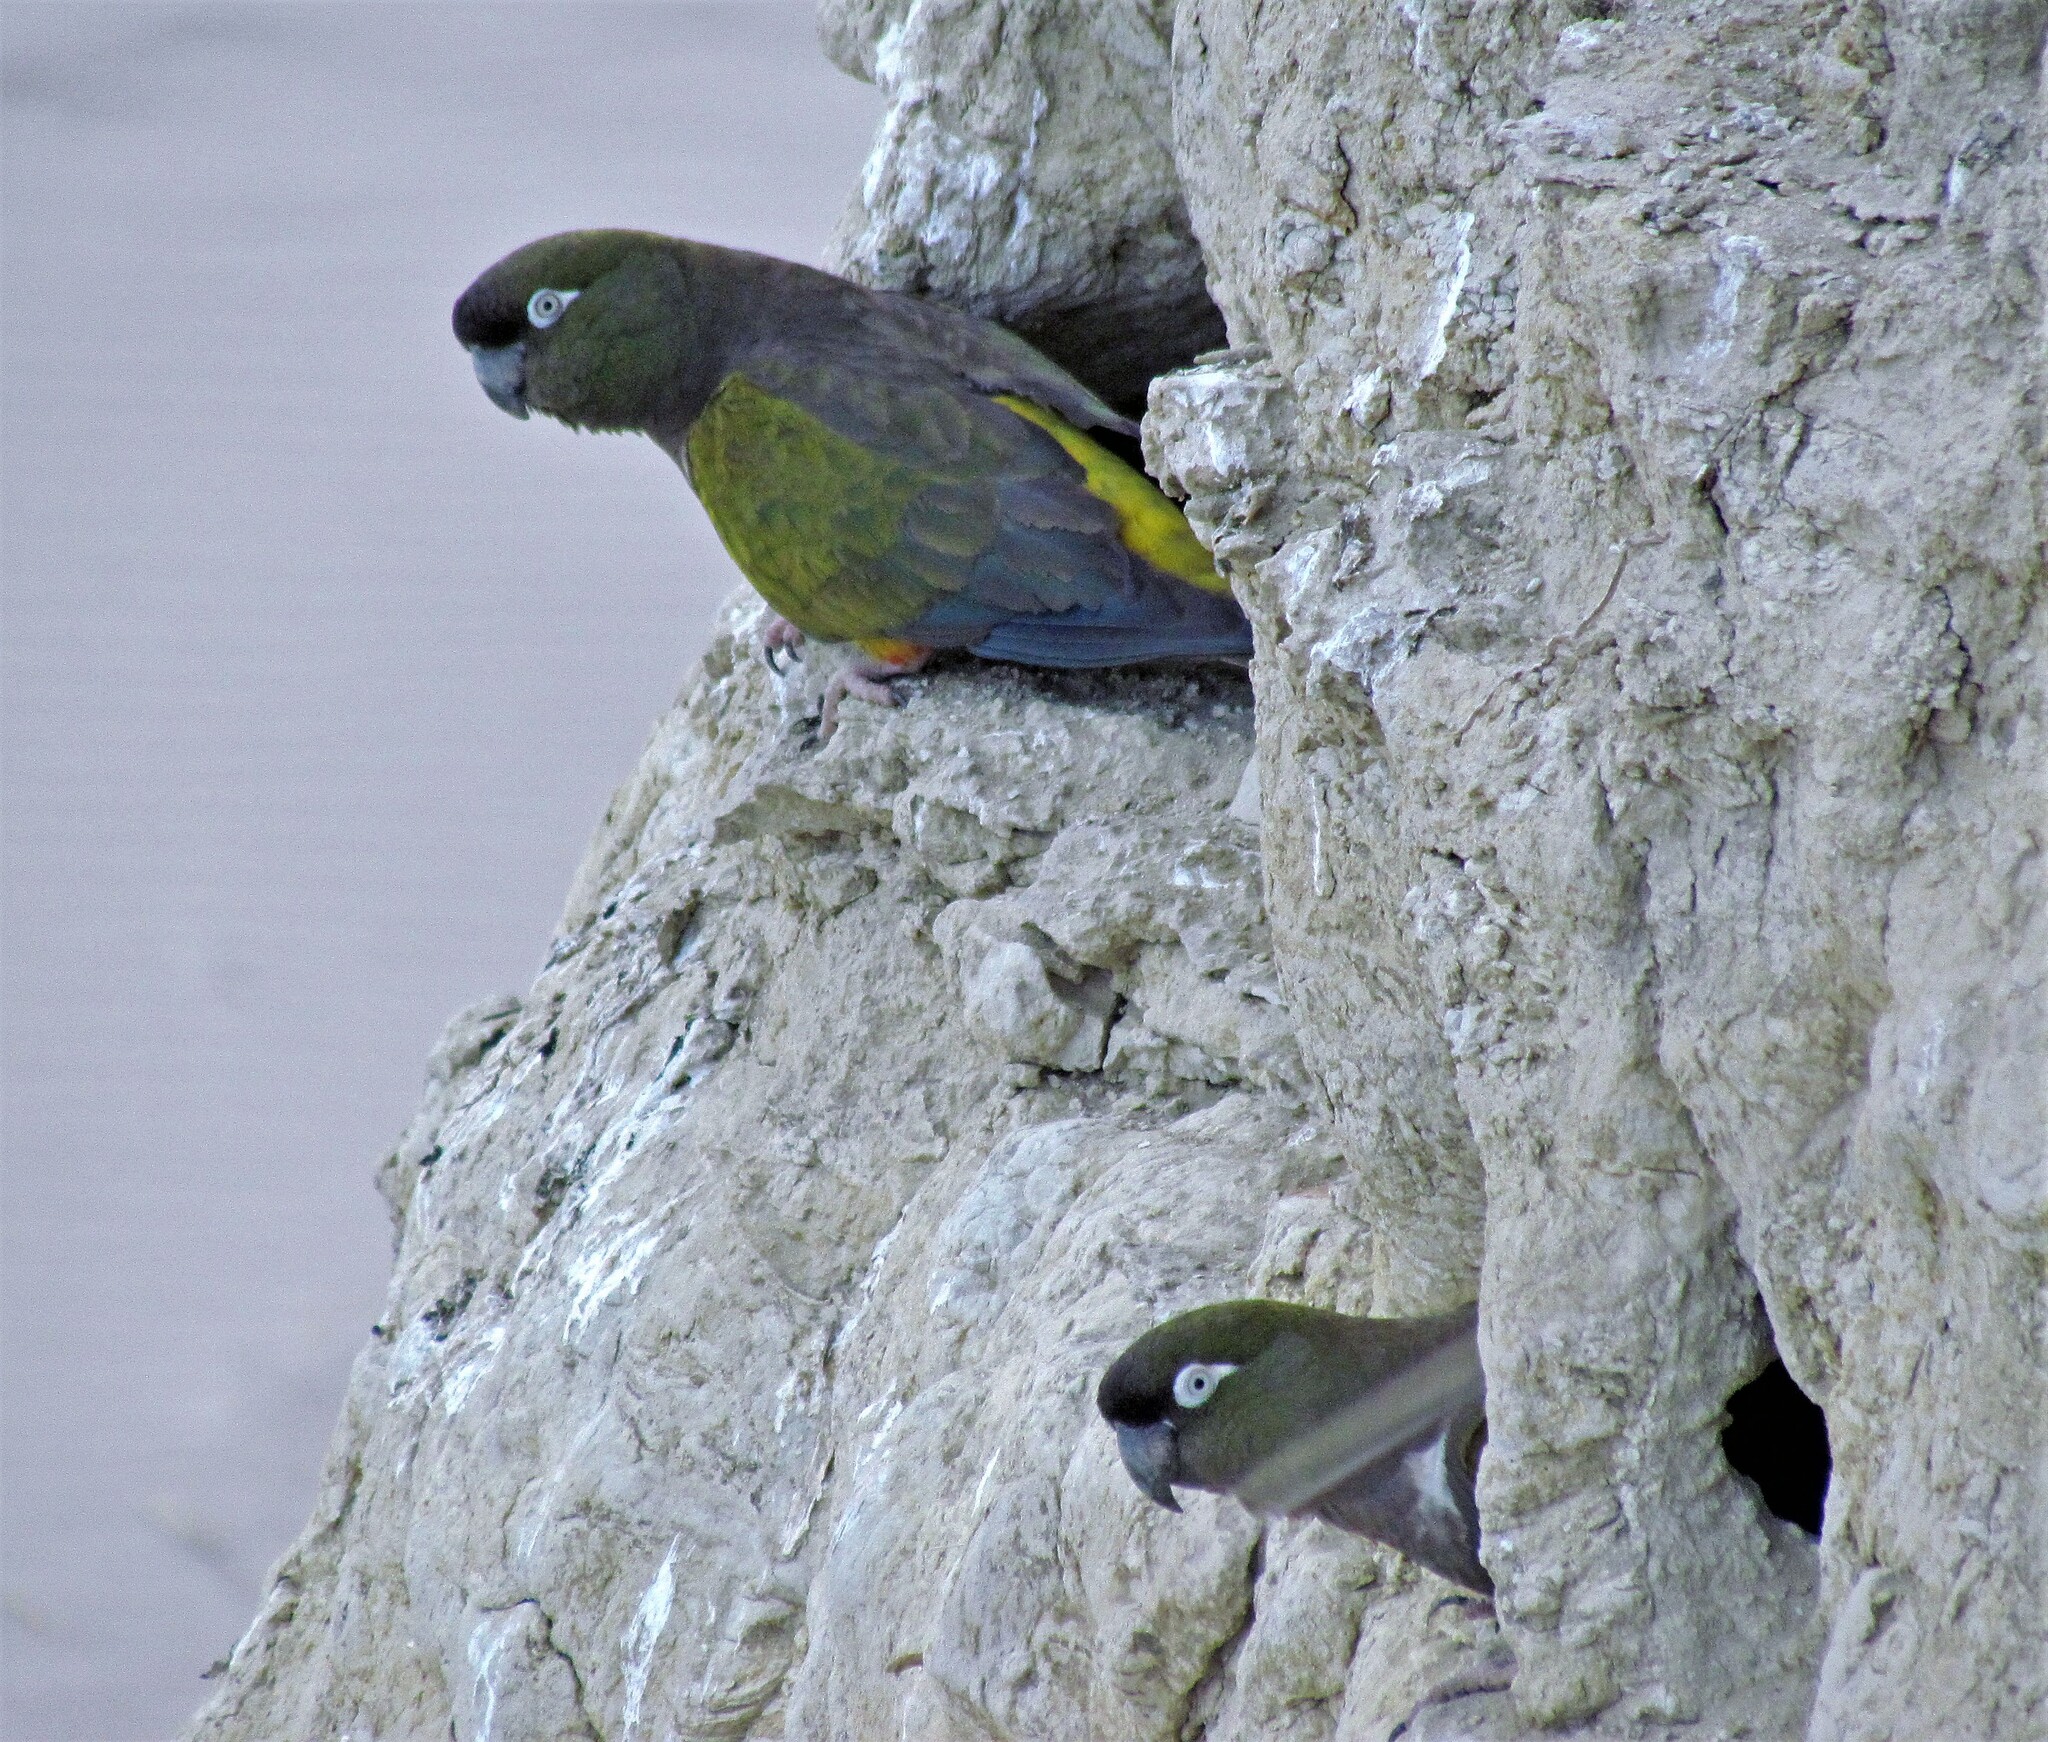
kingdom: Animalia
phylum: Chordata
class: Aves
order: Psittaciformes
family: Psittacidae
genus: Cyanoliseus
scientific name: Cyanoliseus patagonus
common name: Burrowing parrot
